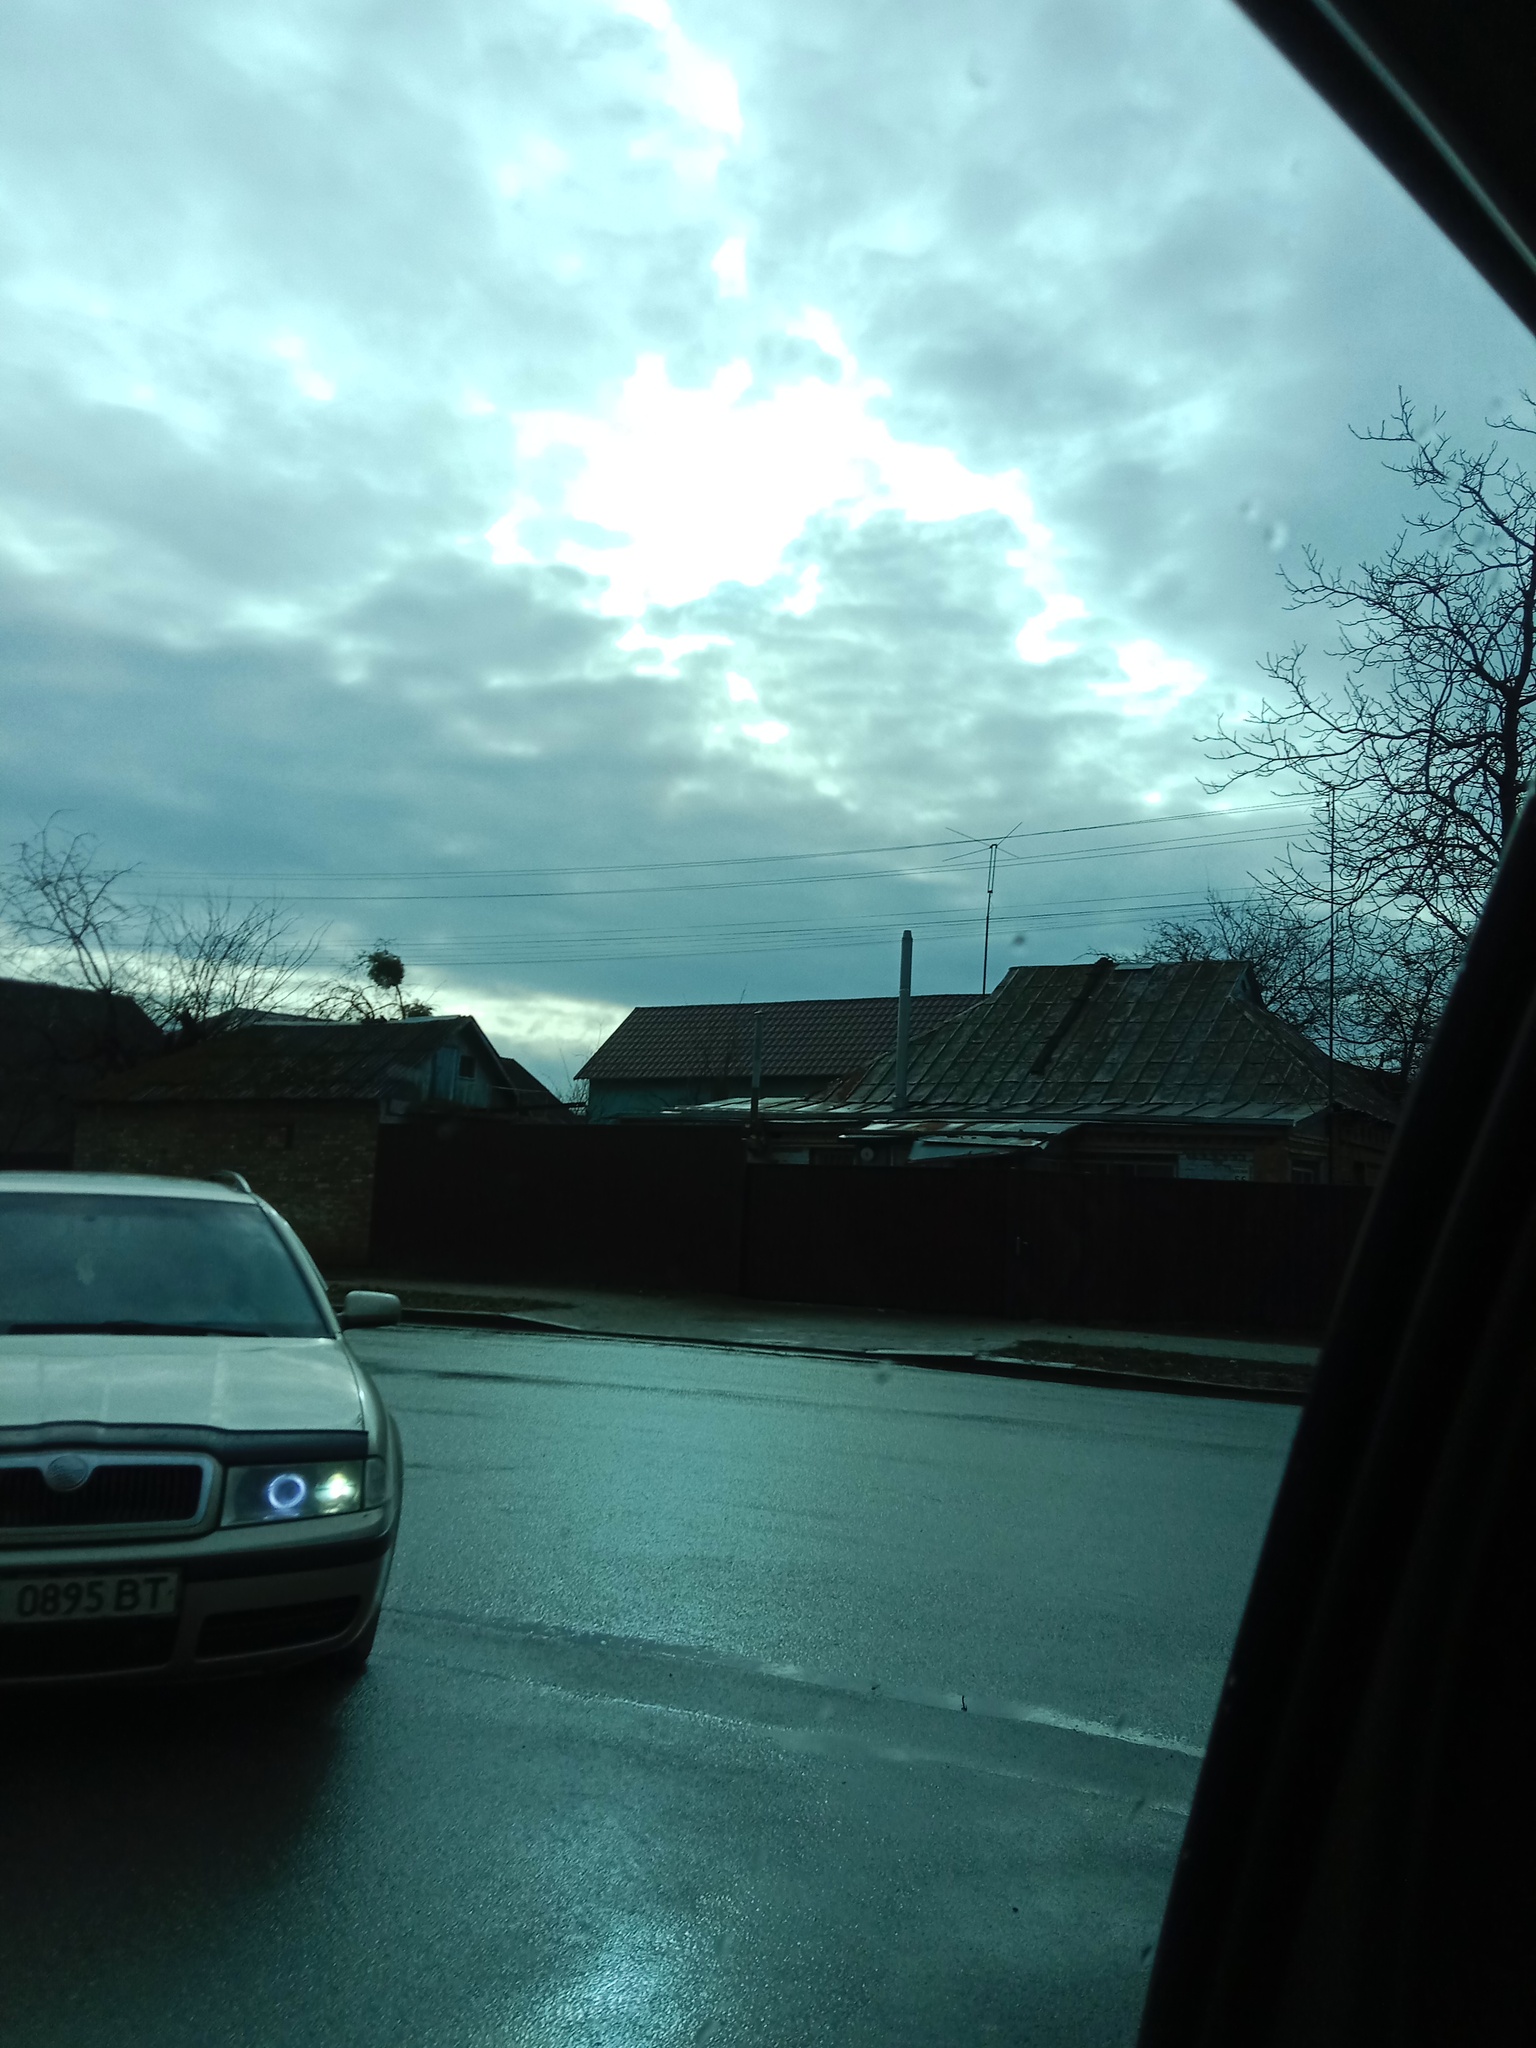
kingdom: Plantae
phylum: Tracheophyta
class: Magnoliopsida
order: Santalales
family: Viscaceae
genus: Viscum
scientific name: Viscum album
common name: Mistletoe
